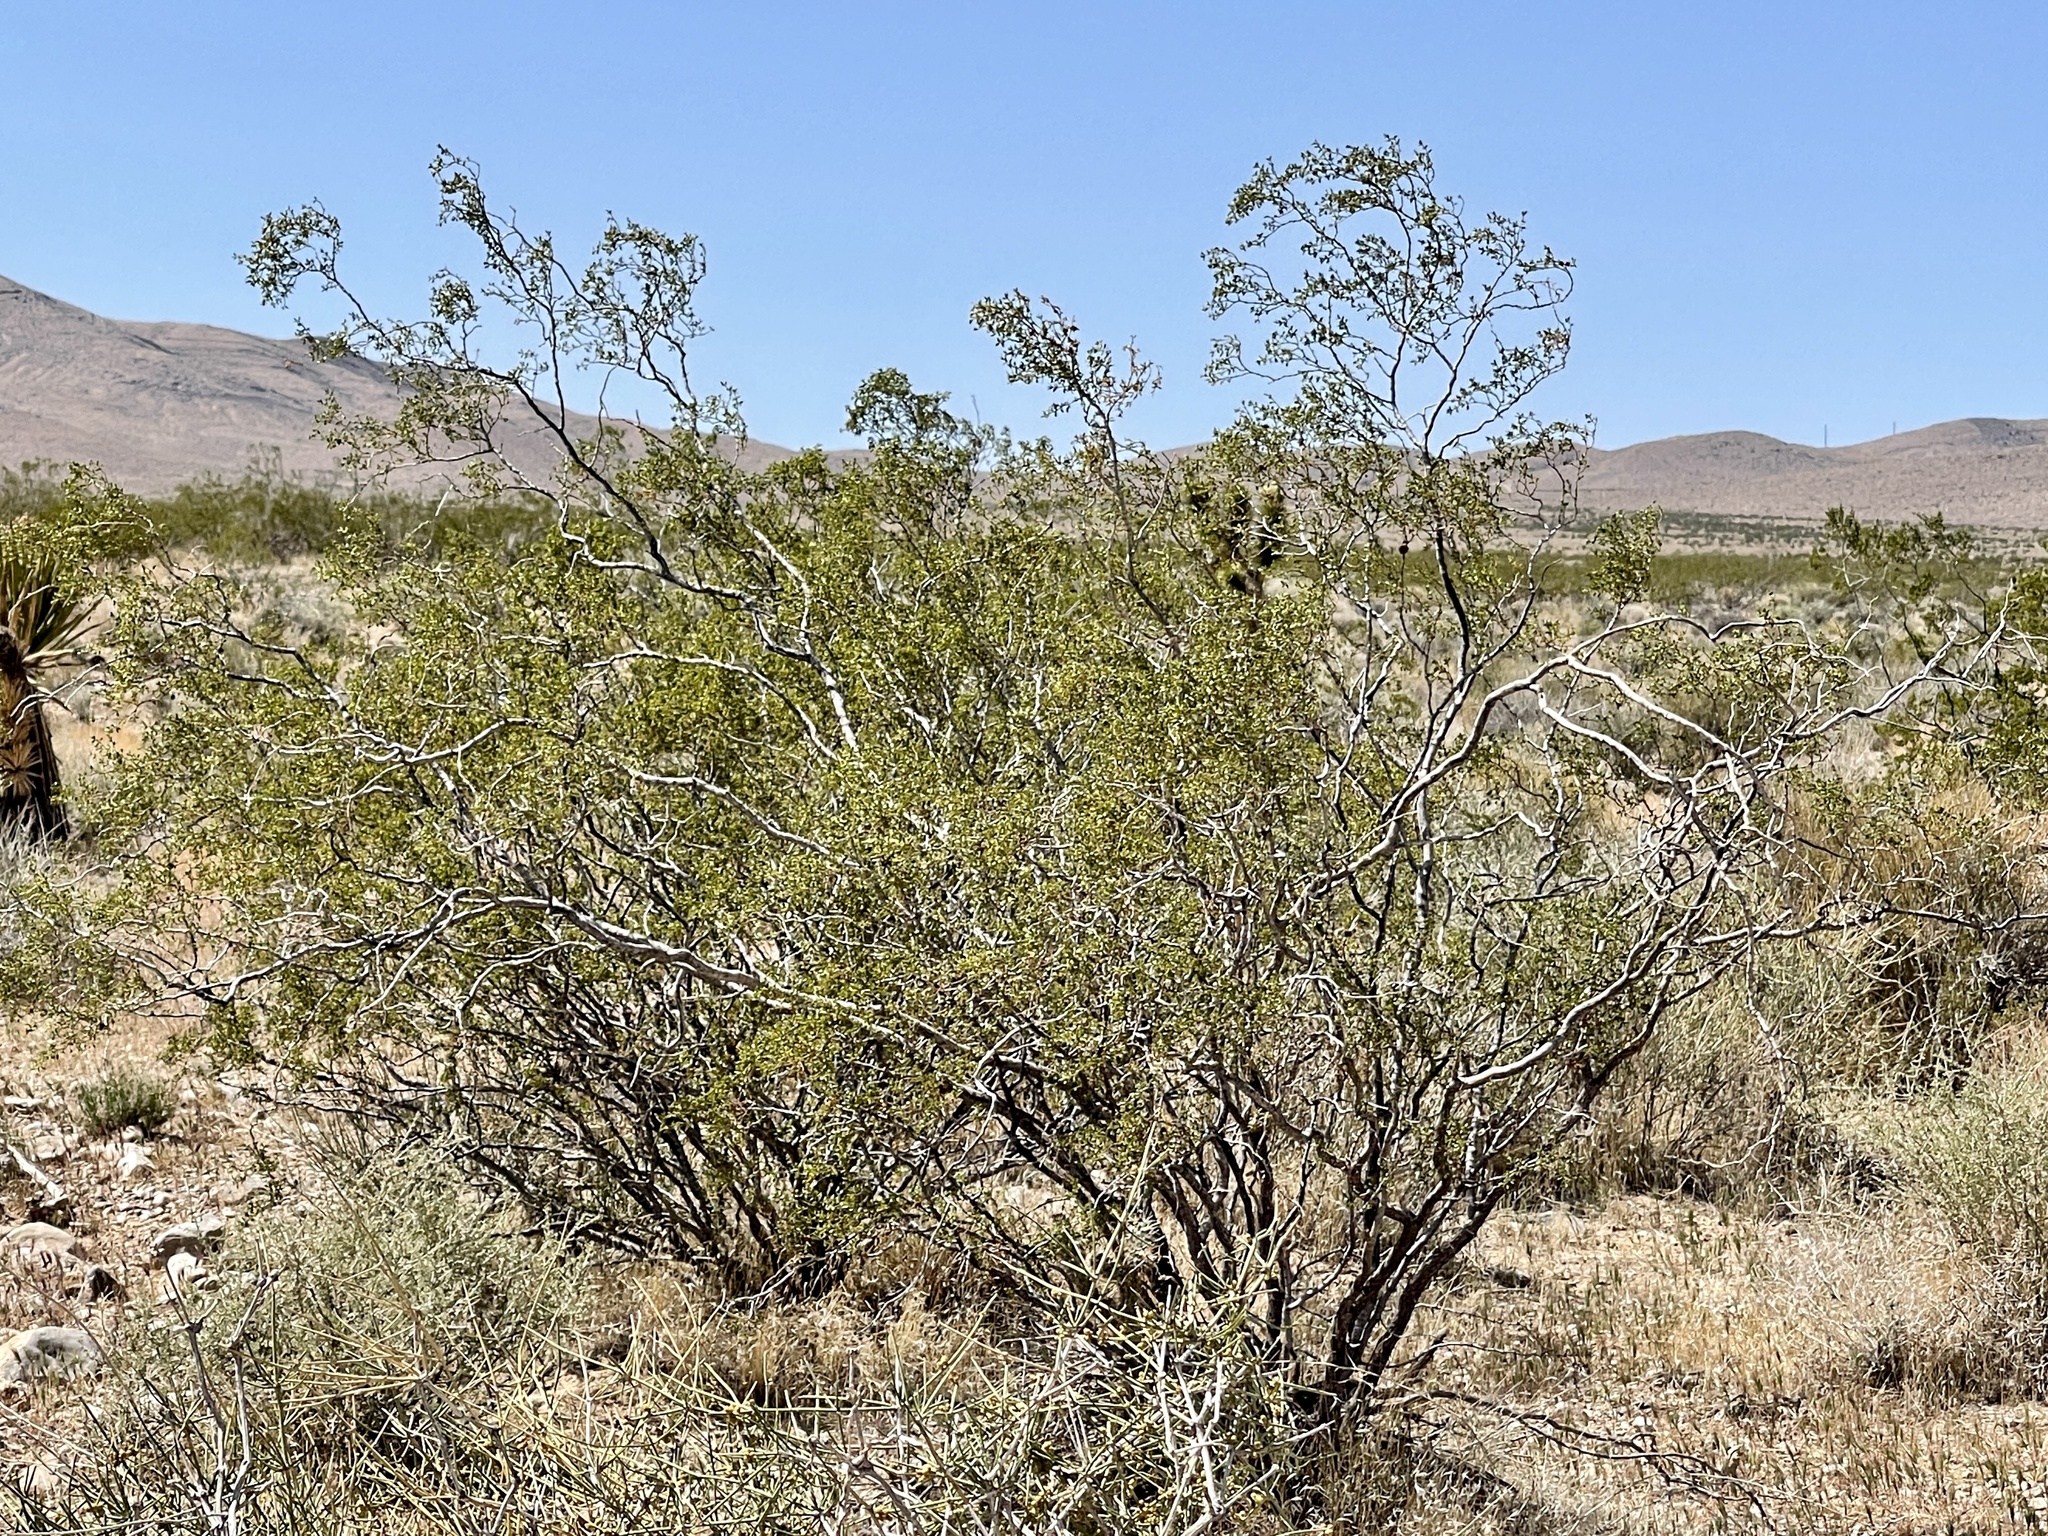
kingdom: Plantae
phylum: Tracheophyta
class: Magnoliopsida
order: Zygophyllales
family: Zygophyllaceae
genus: Larrea
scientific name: Larrea tridentata
